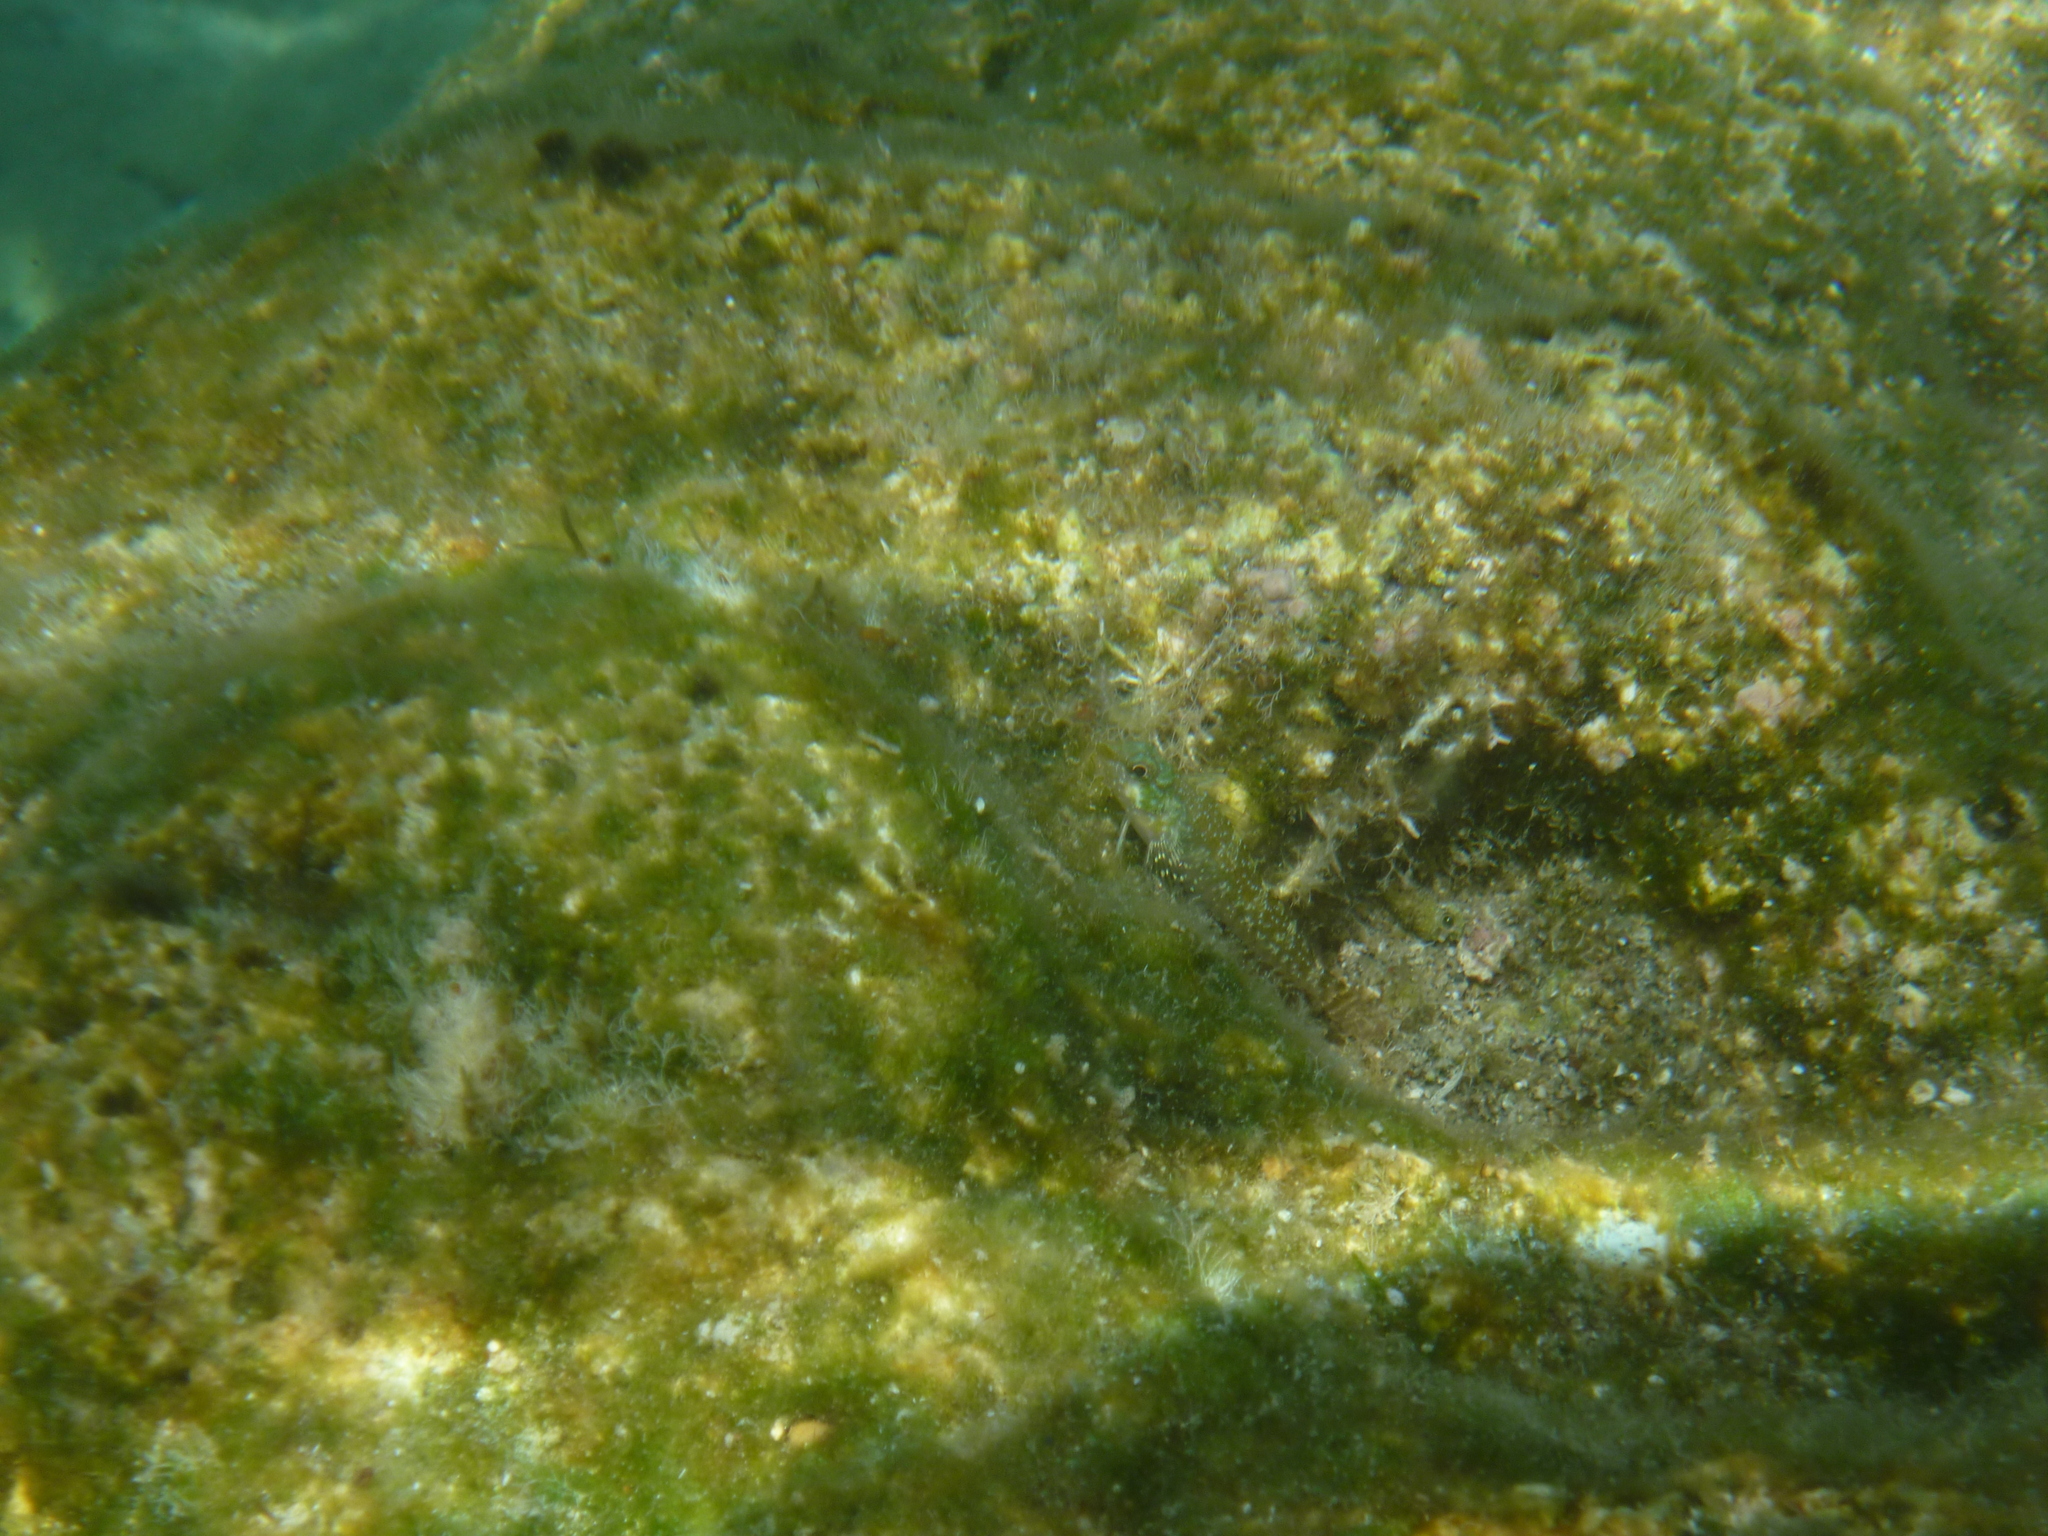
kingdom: Animalia
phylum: Chordata
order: Perciformes
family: Tripterygiidae
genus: Tripterygion
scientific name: Tripterygion tripteronotum
